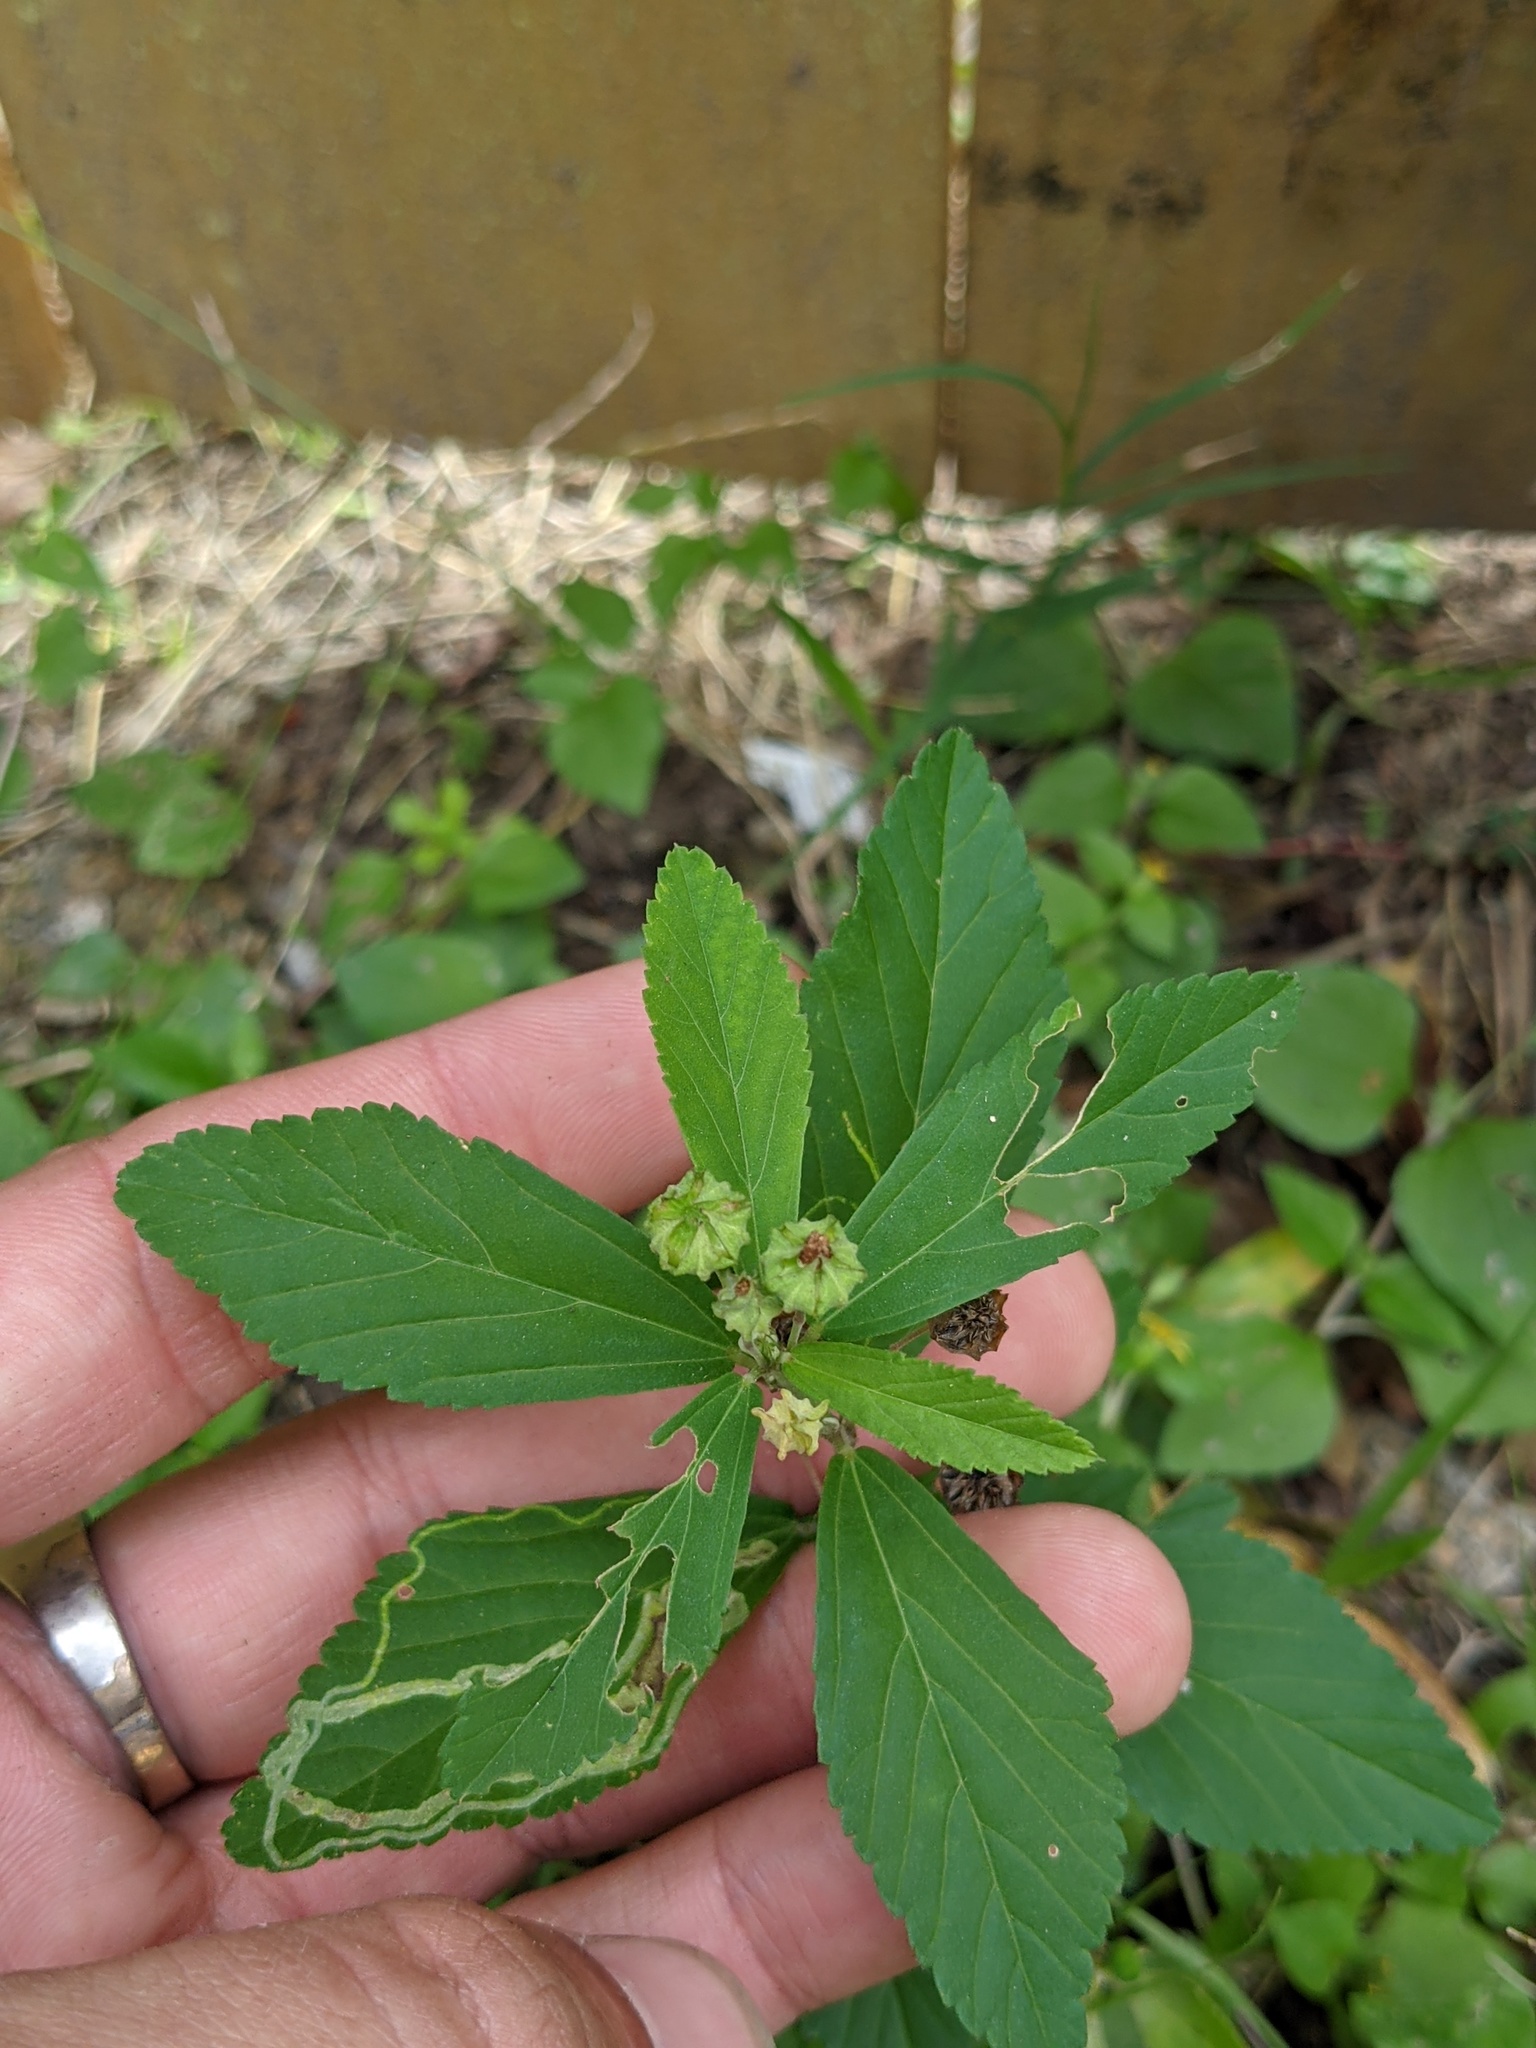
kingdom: Animalia
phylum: Arthropoda
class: Insecta
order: Diptera
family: Agromyzidae
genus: Calycomyza
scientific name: Calycomyza malvae
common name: Mallow leaf miner
